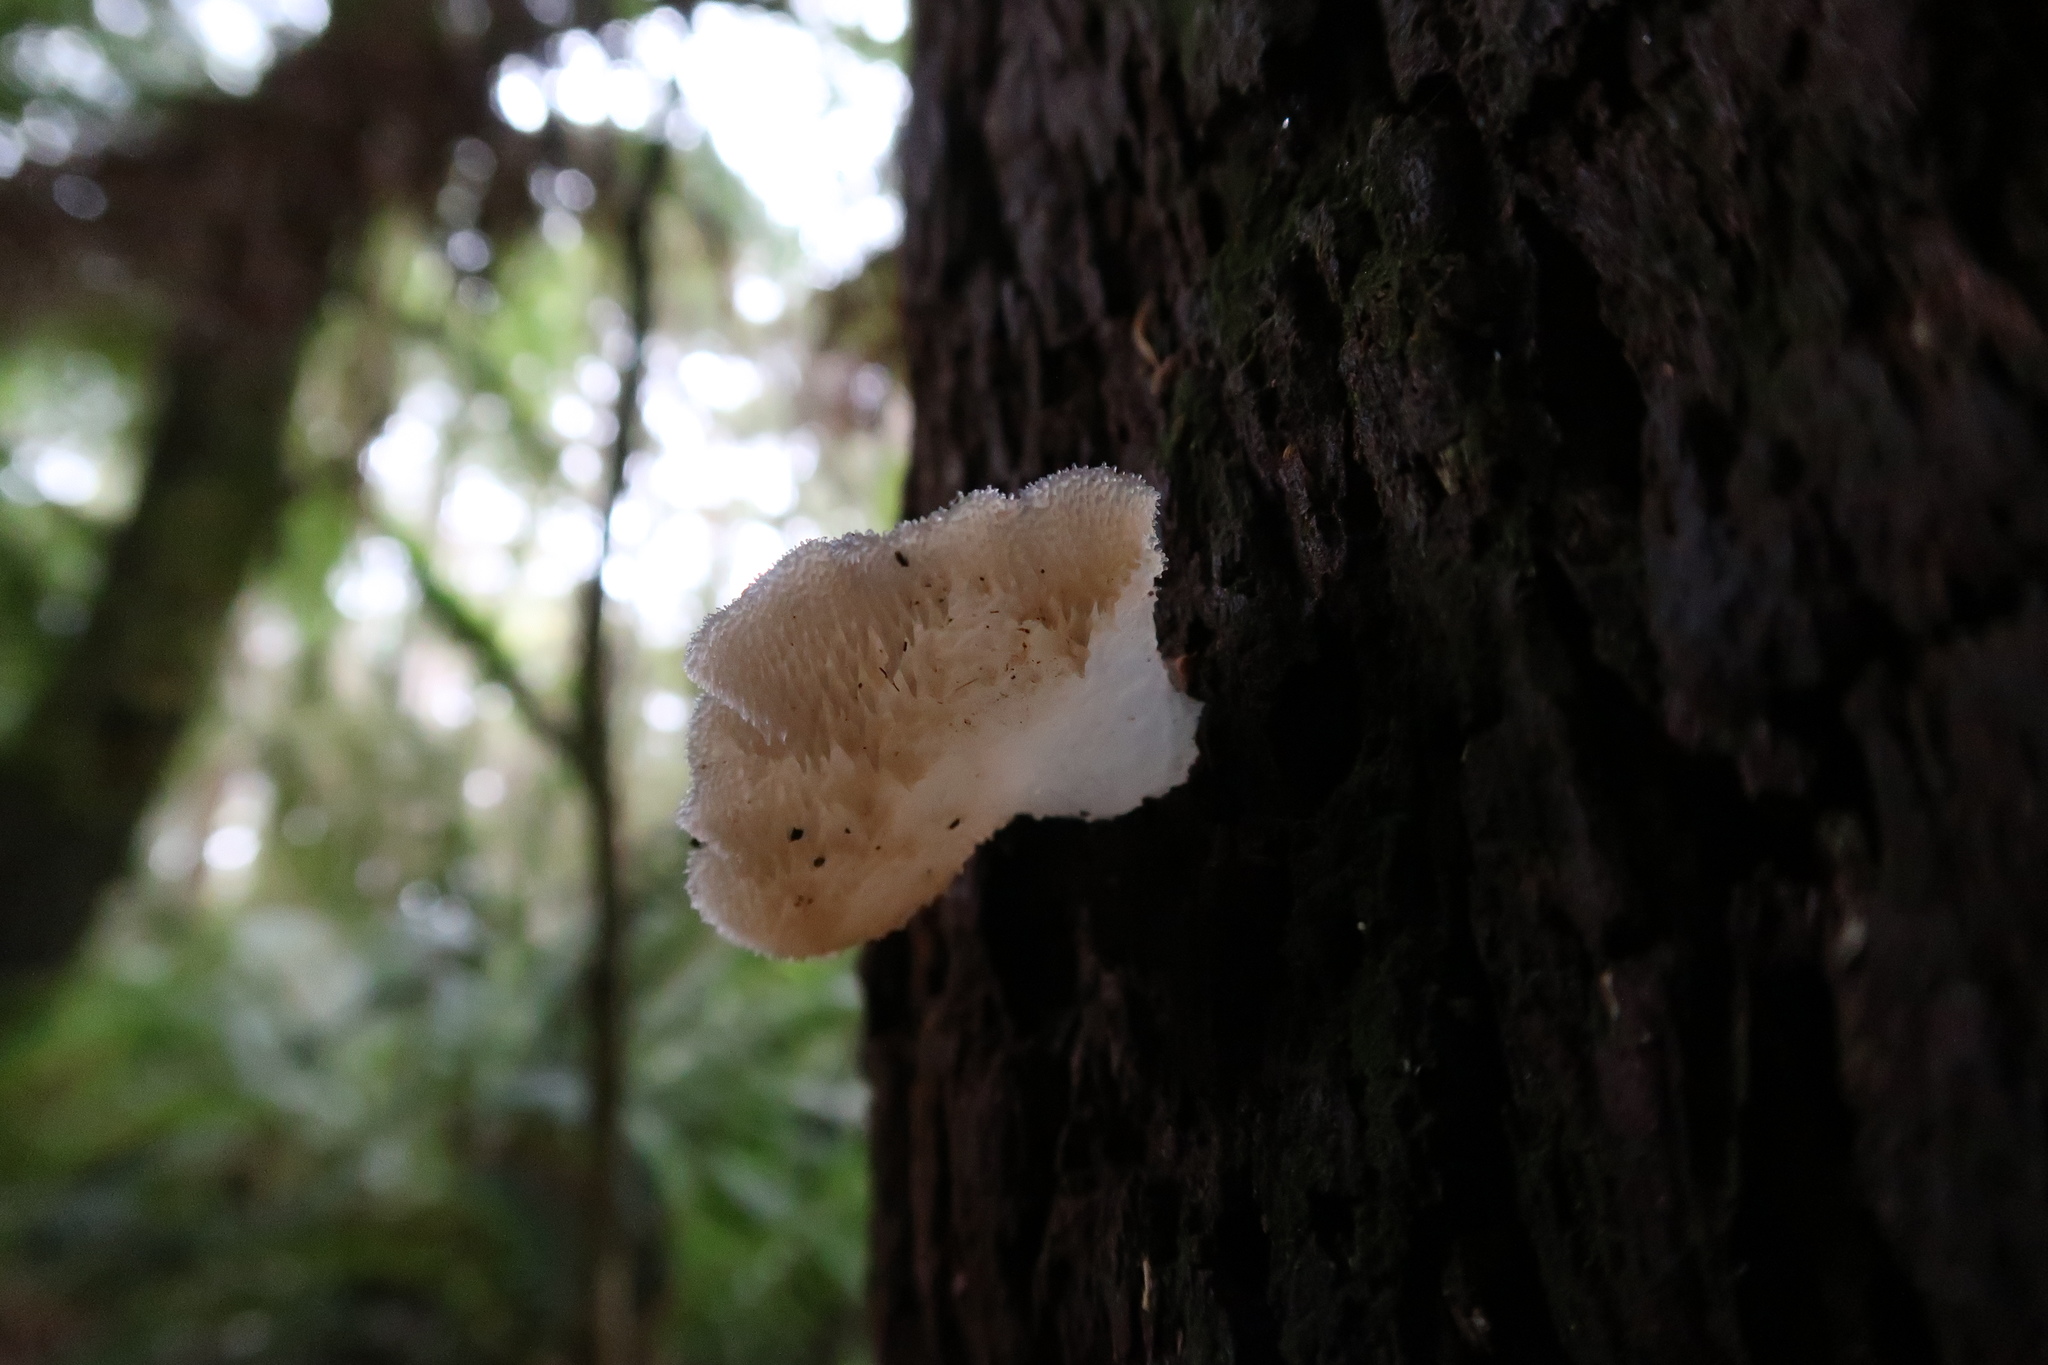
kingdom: Fungi
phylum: Basidiomycota
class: Agaricomycetes
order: Auriculariales
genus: Pseudohydnum
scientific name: Pseudohydnum gelatinosum
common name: Jelly tongue
